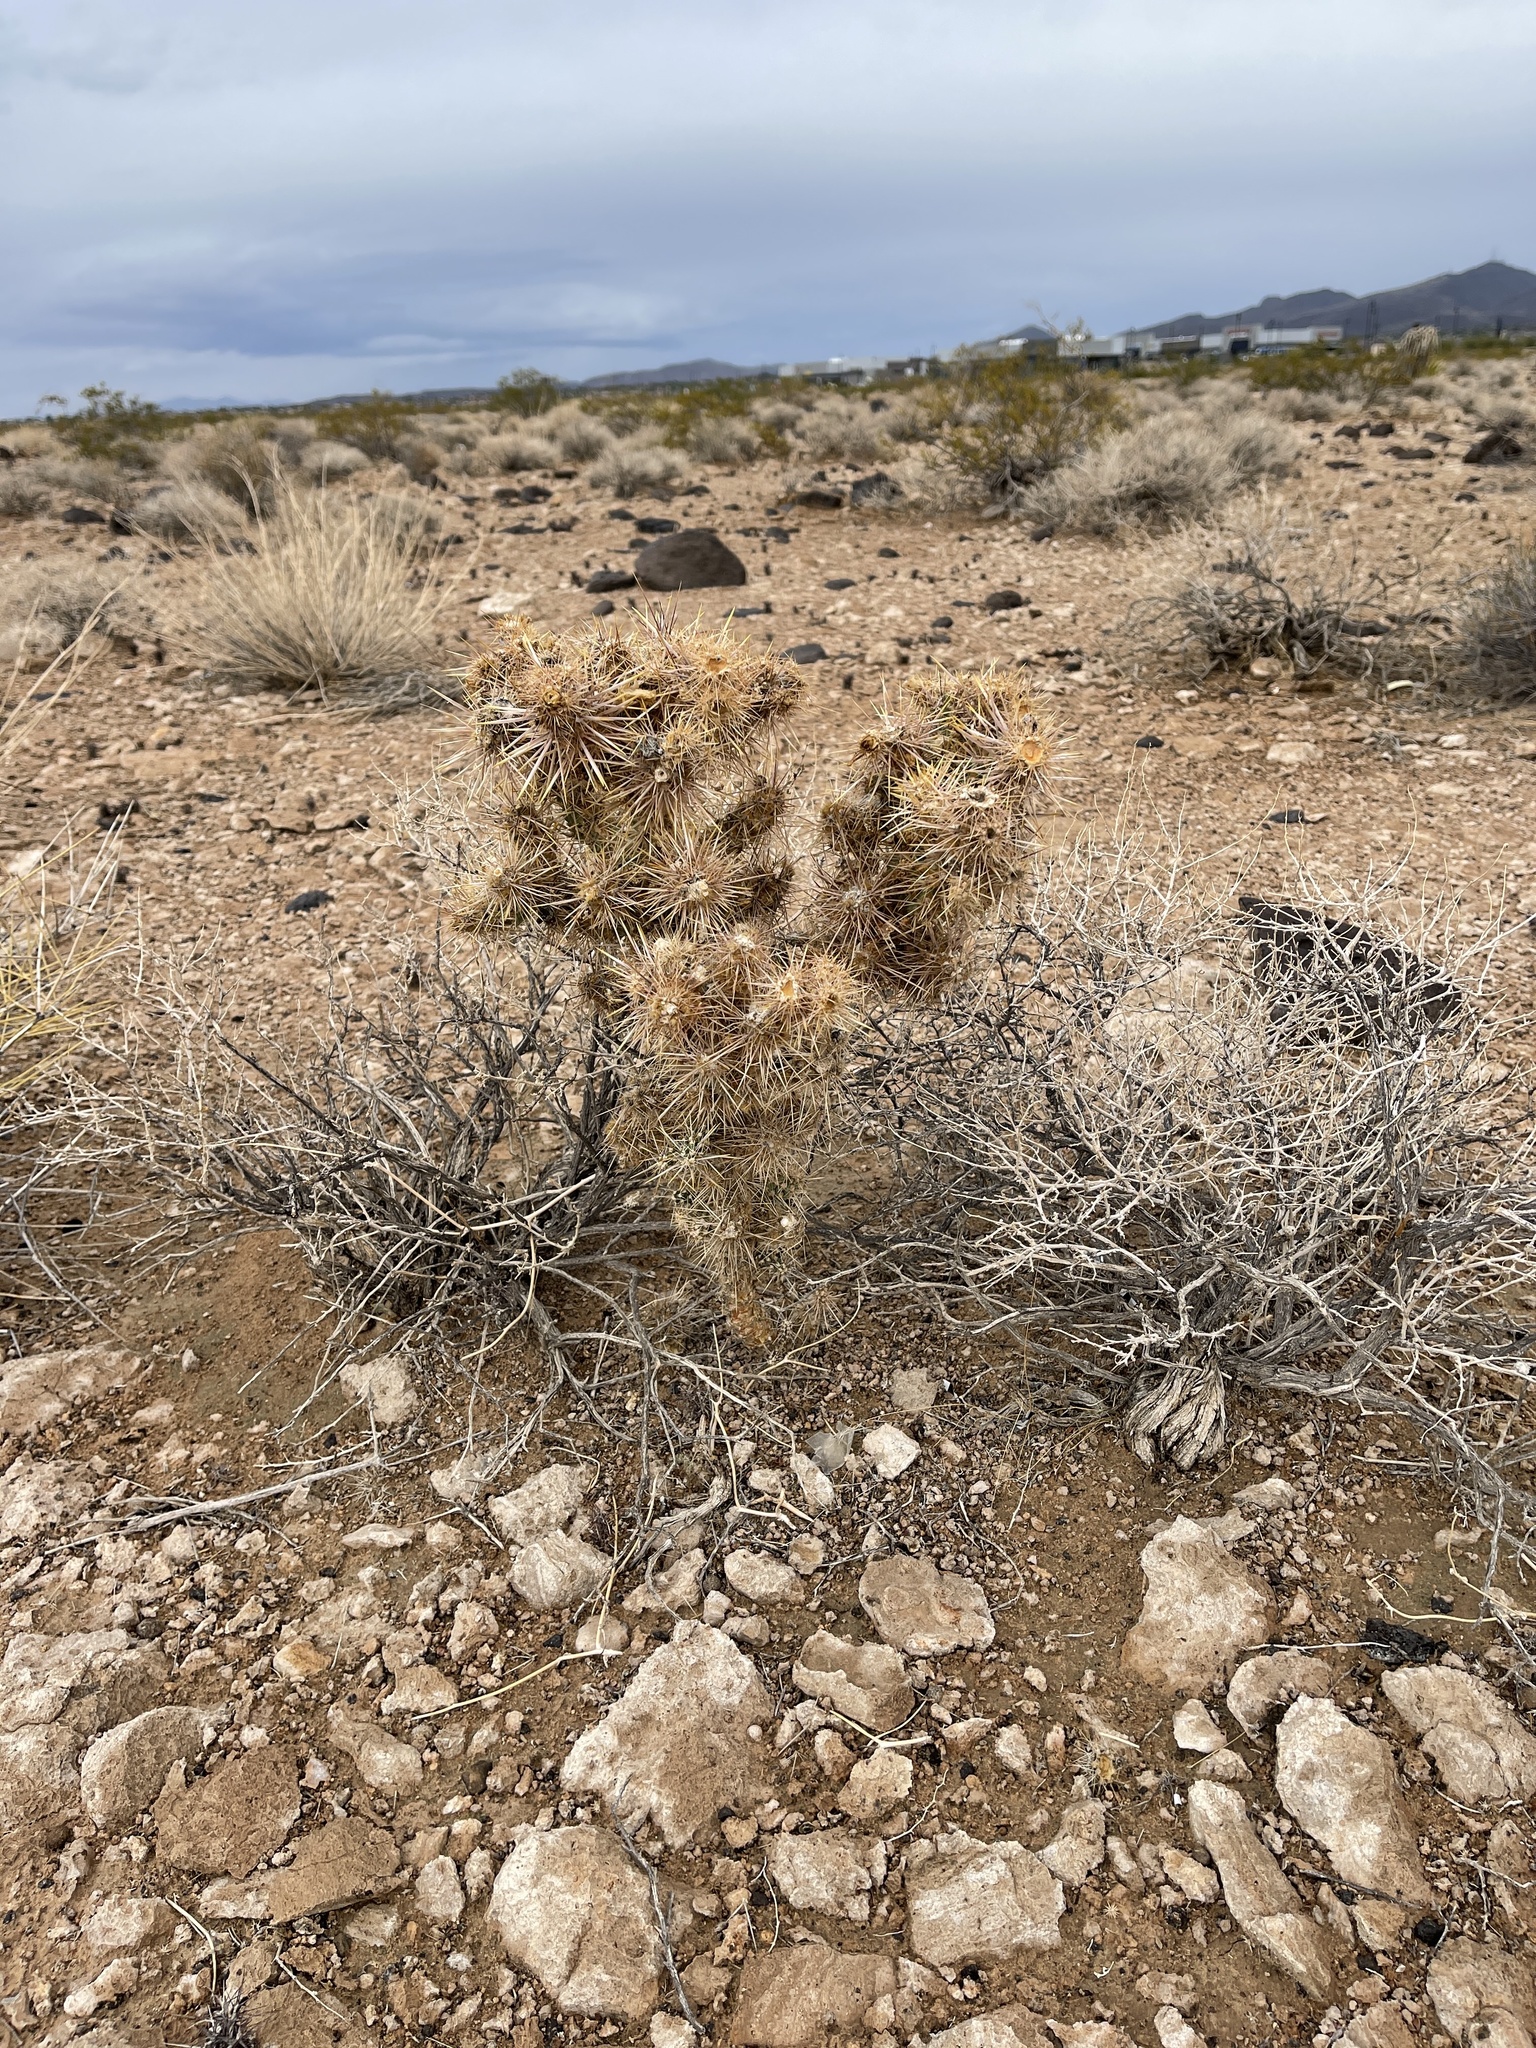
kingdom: Plantae
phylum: Tracheophyta
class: Magnoliopsida
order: Caryophyllales
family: Cactaceae
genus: Cylindropuntia
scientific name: Cylindropuntia echinocarpa
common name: Ground cholla
